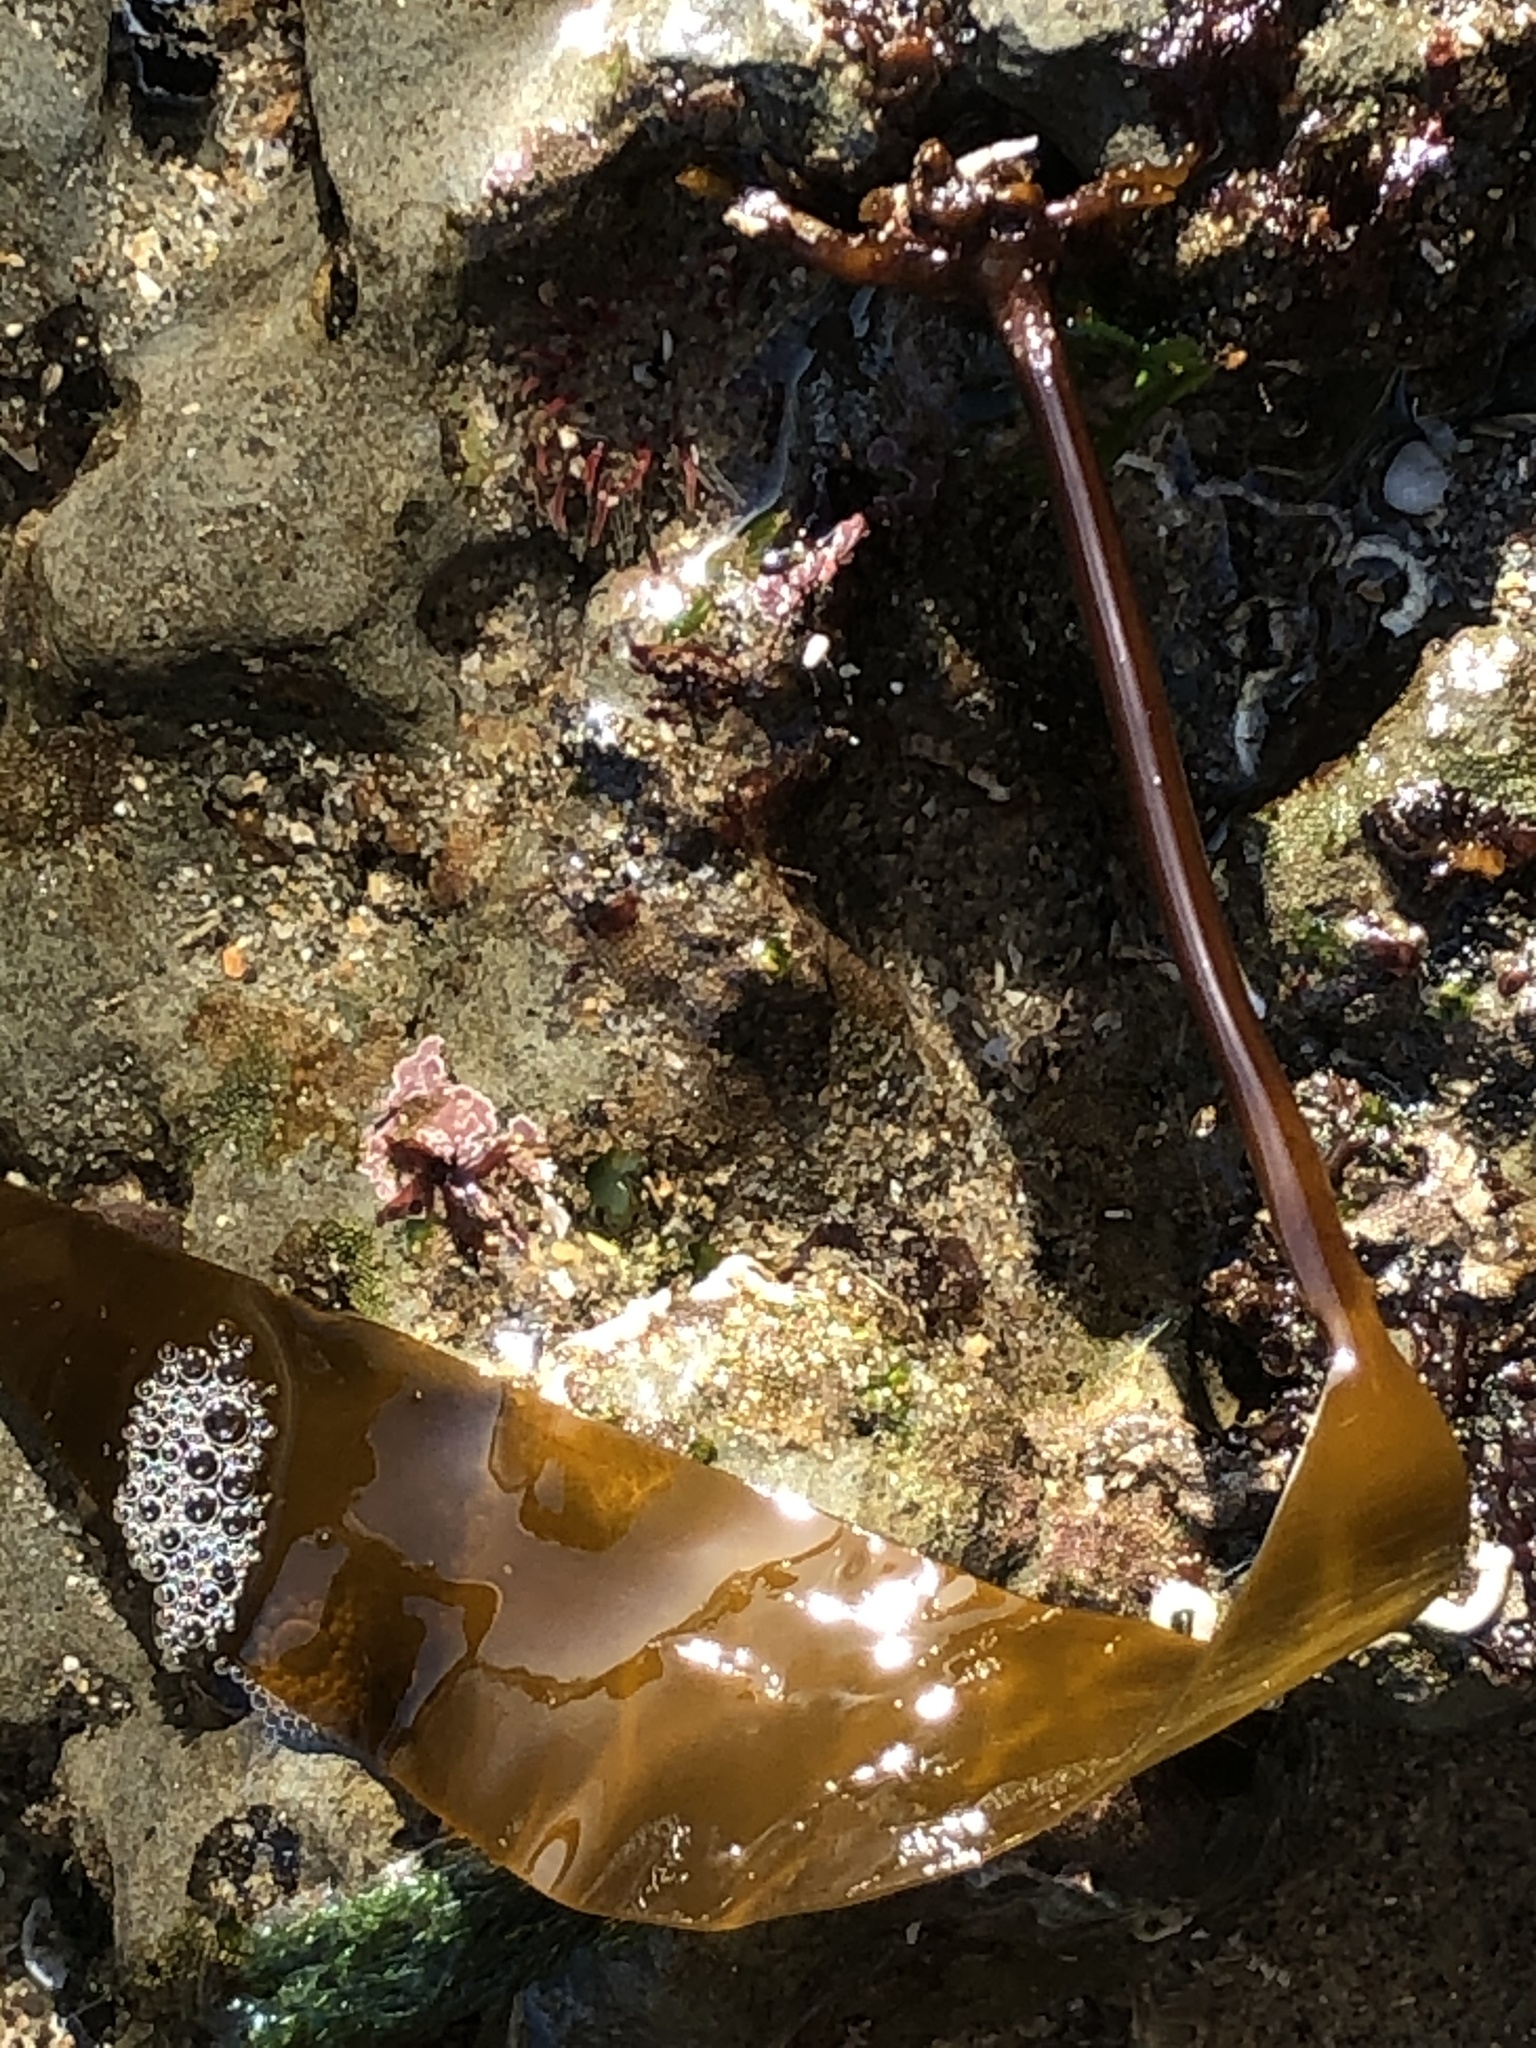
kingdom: Chromista
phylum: Ochrophyta
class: Phaeophyceae
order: Laminariales
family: Laminariaceae
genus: Laminaria
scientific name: Laminaria setchellii
